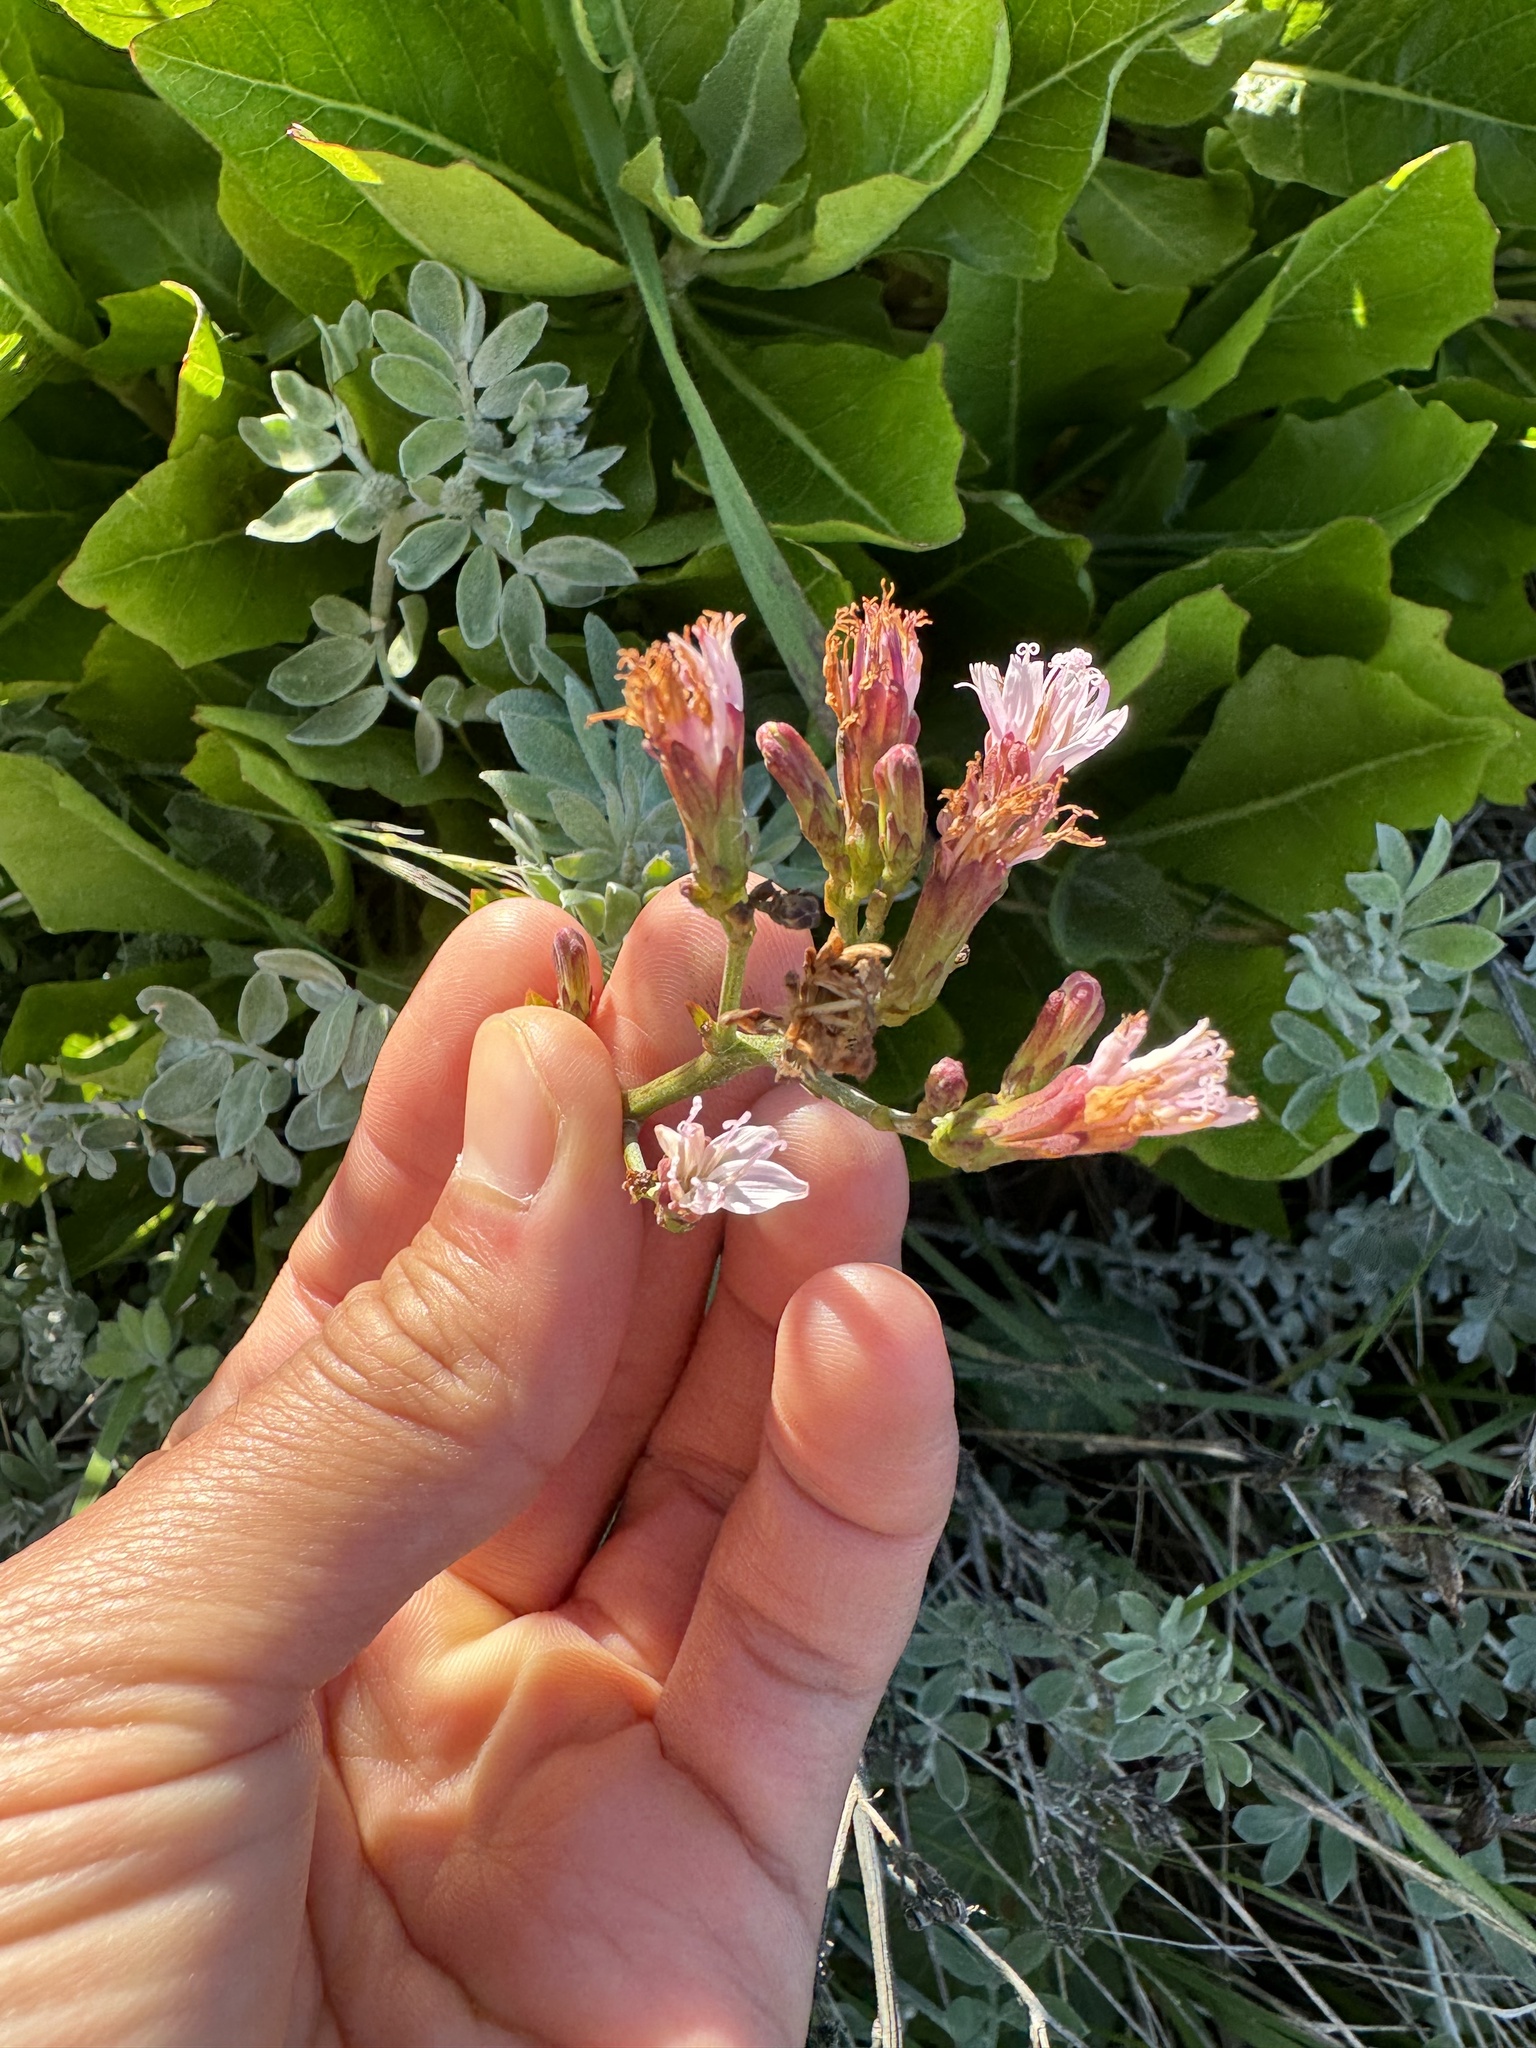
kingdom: Plantae
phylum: Tracheophyta
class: Magnoliopsida
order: Asterales
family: Asteraceae
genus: Munzothamnus
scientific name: Munzothamnus blairii
